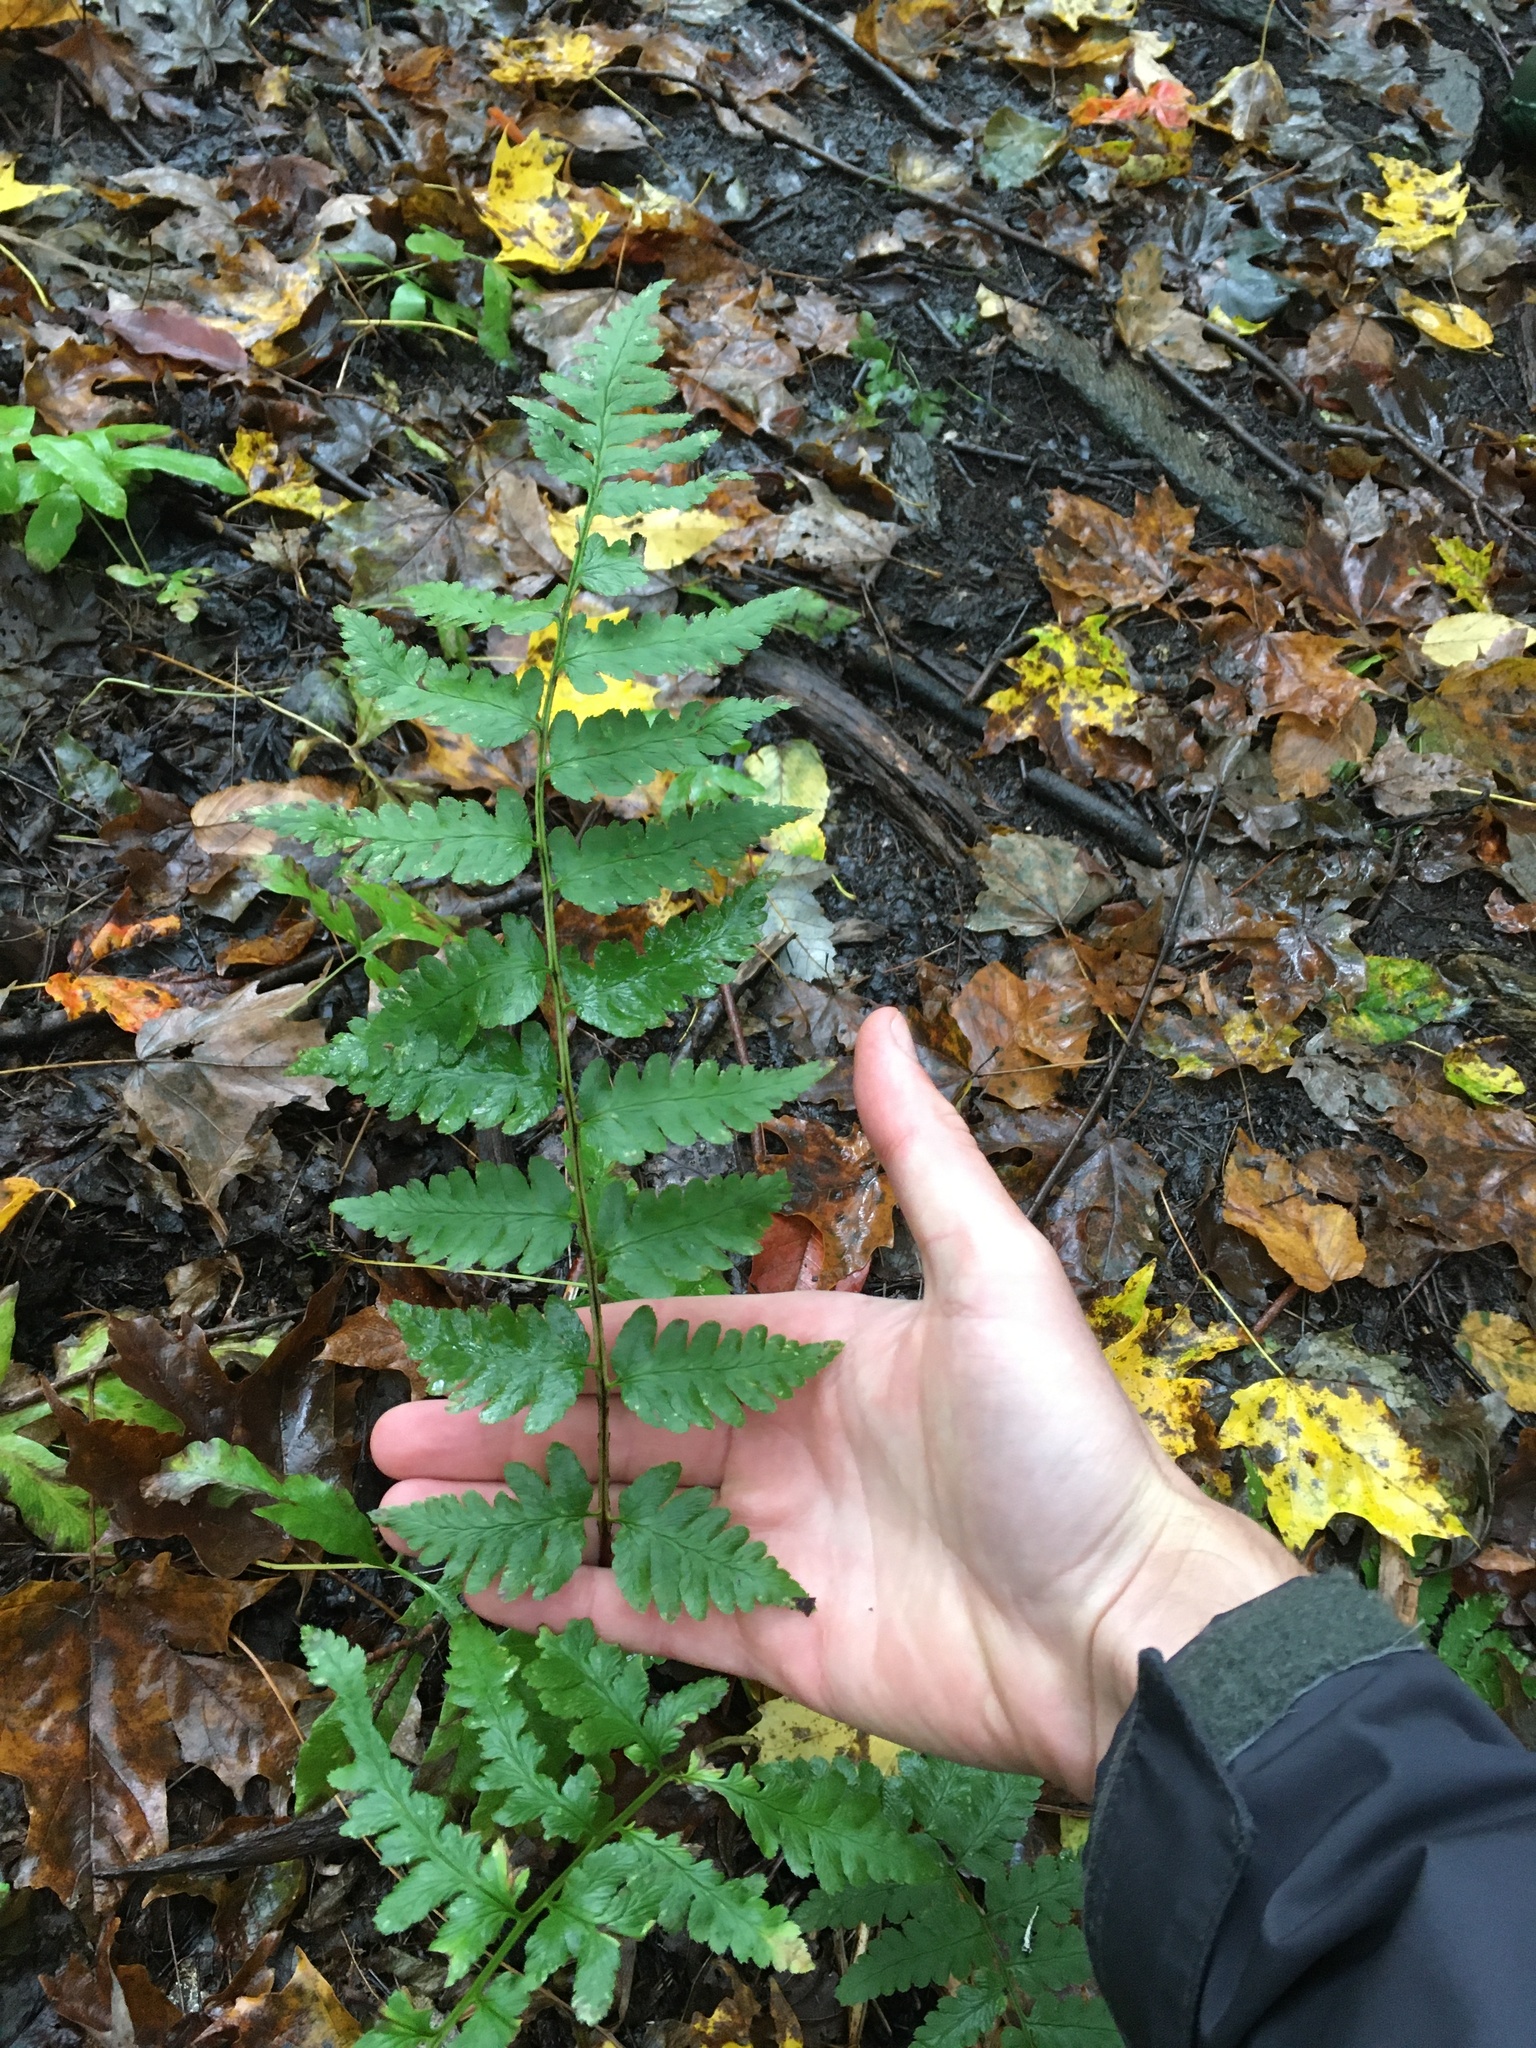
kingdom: Plantae
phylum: Tracheophyta
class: Polypodiopsida
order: Polypodiales
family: Dryopteridaceae
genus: Dryopteris
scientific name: Dryopteris cristata
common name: Crested wood fern
